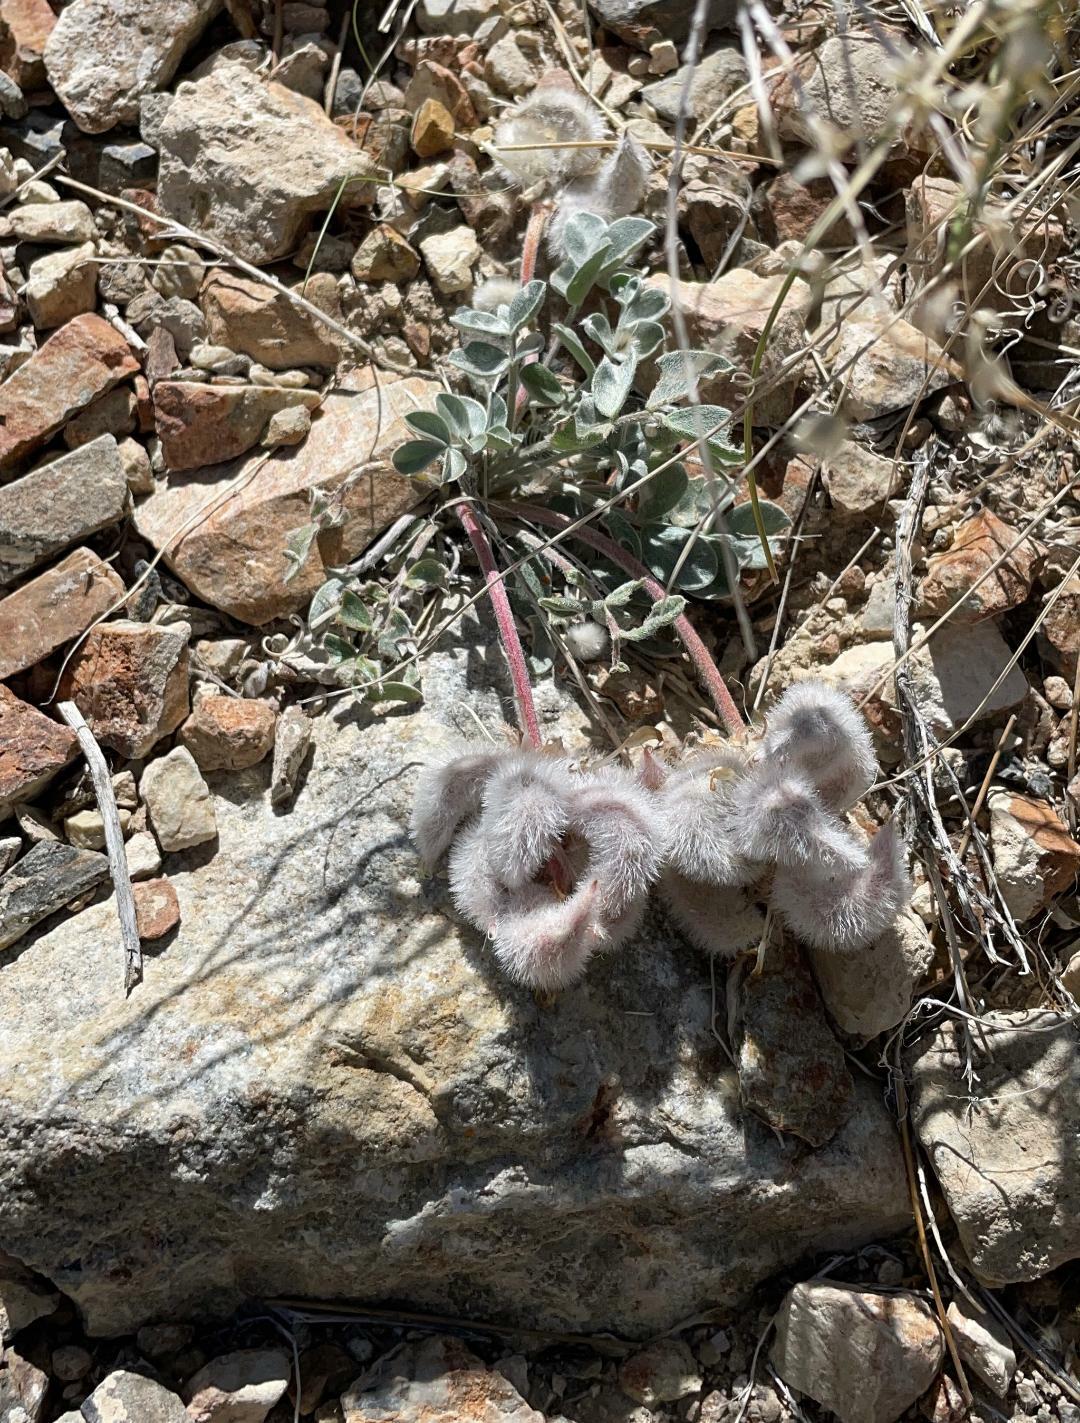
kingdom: Plantae
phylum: Tracheophyta
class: Magnoliopsida
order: Fabales
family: Fabaceae
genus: Astragalus
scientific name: Astragalus newberryi
